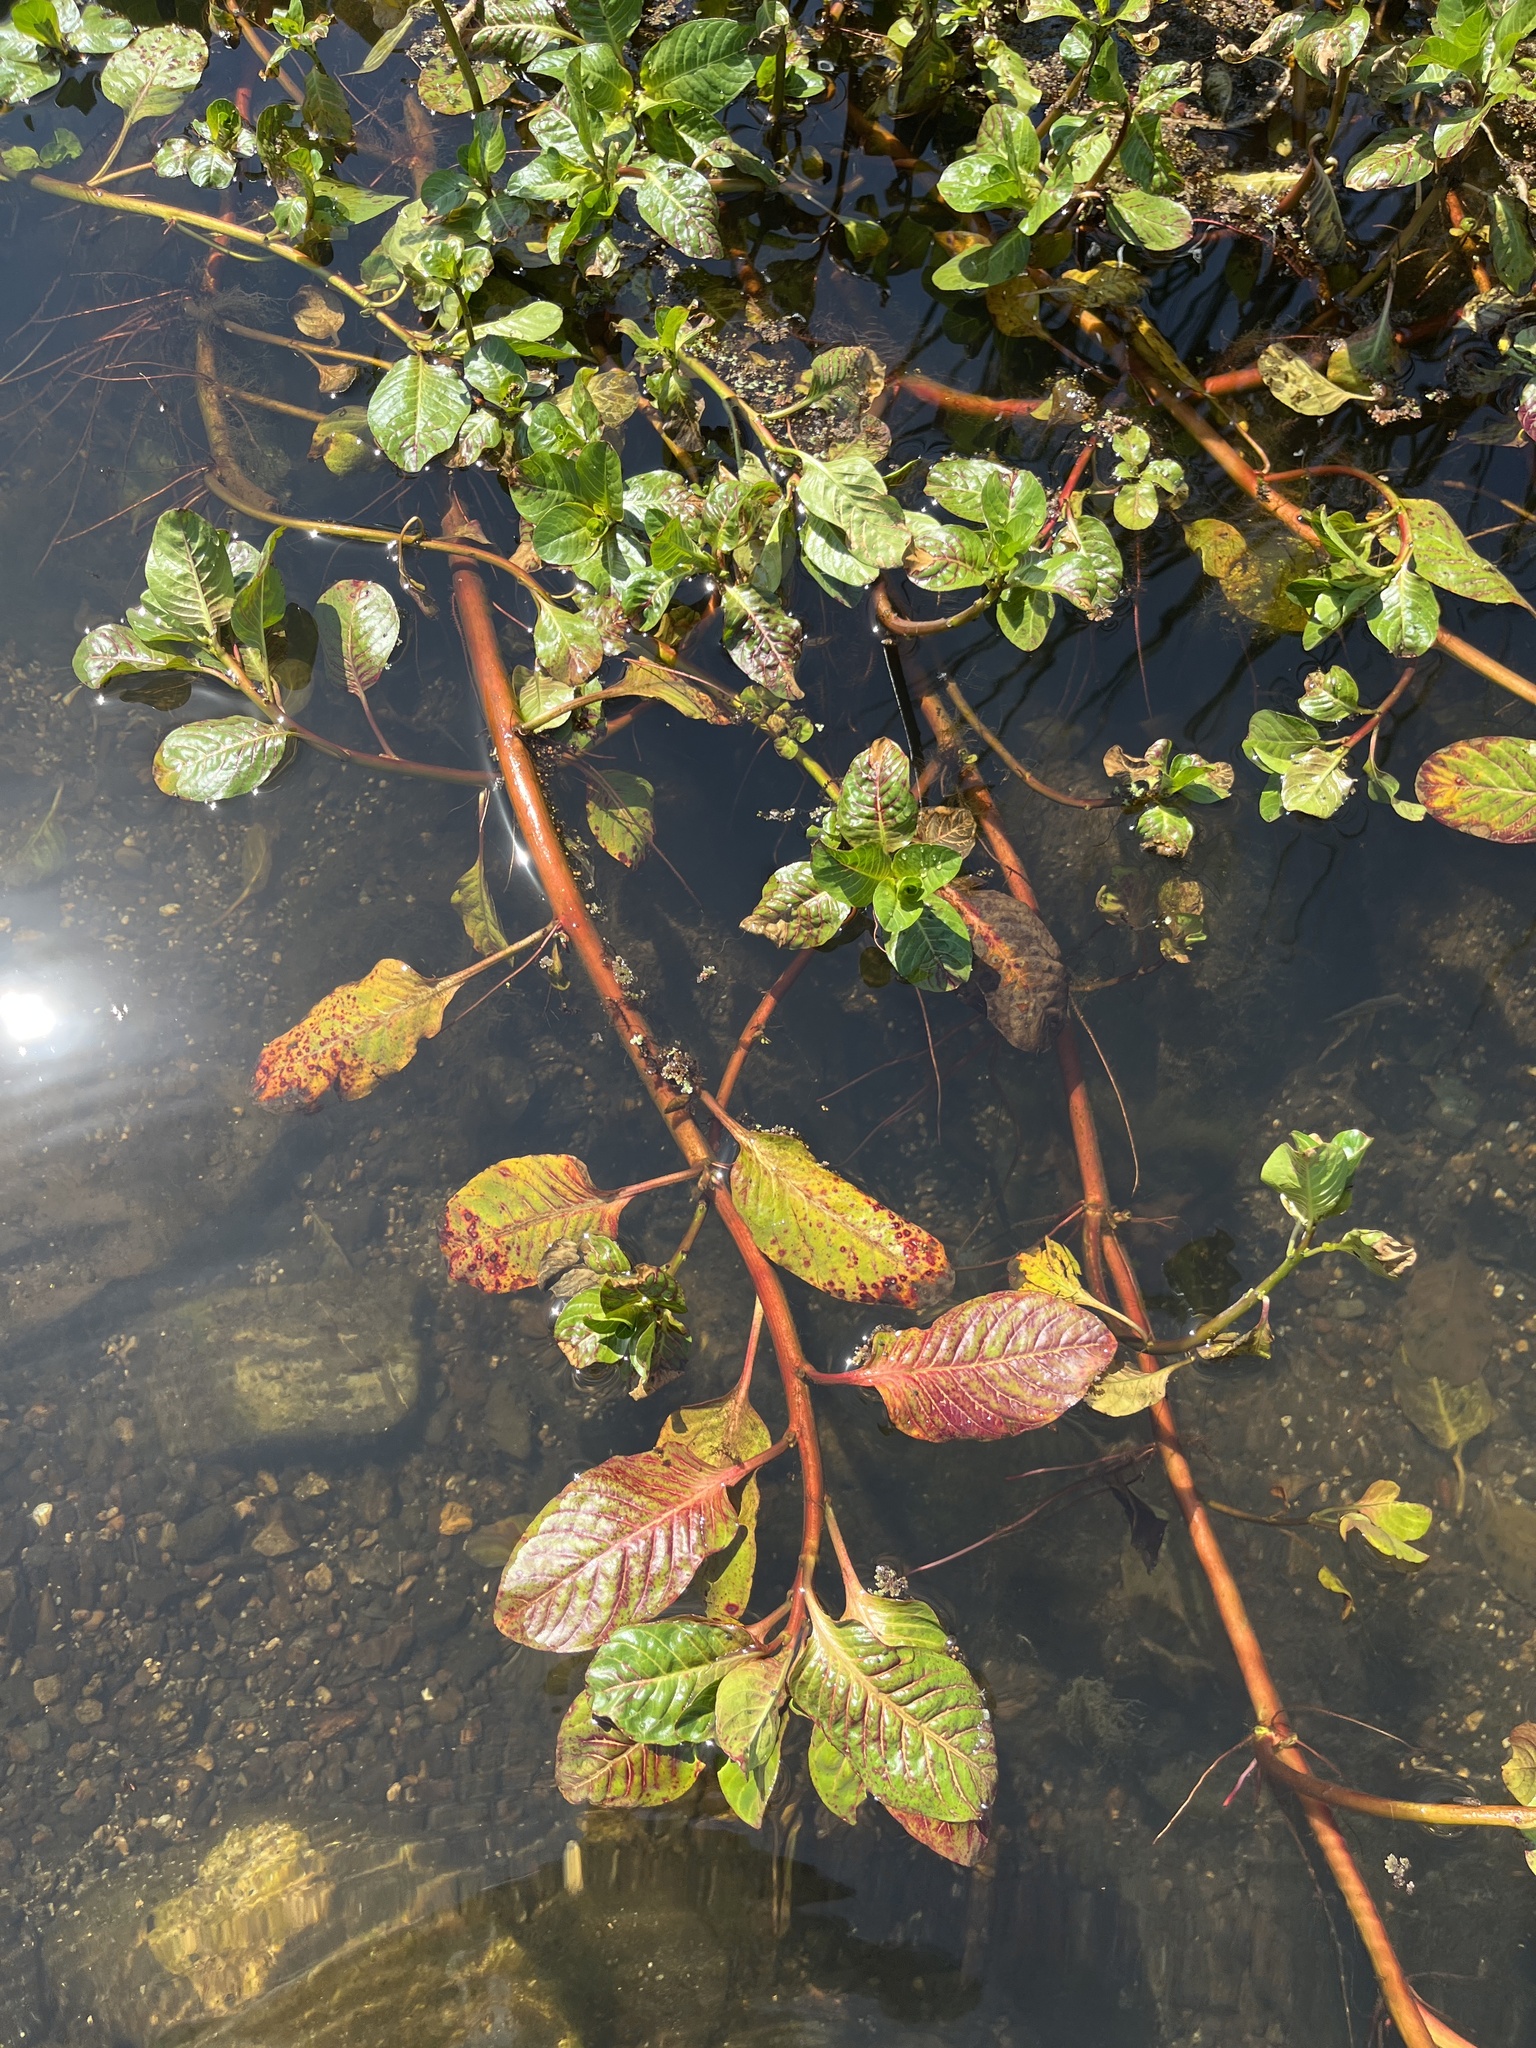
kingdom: Plantae
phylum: Tracheophyta
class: Magnoliopsida
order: Myrtales
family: Onagraceae
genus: Ludwigia
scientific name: Ludwigia peploides
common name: Floating primrose-willow
